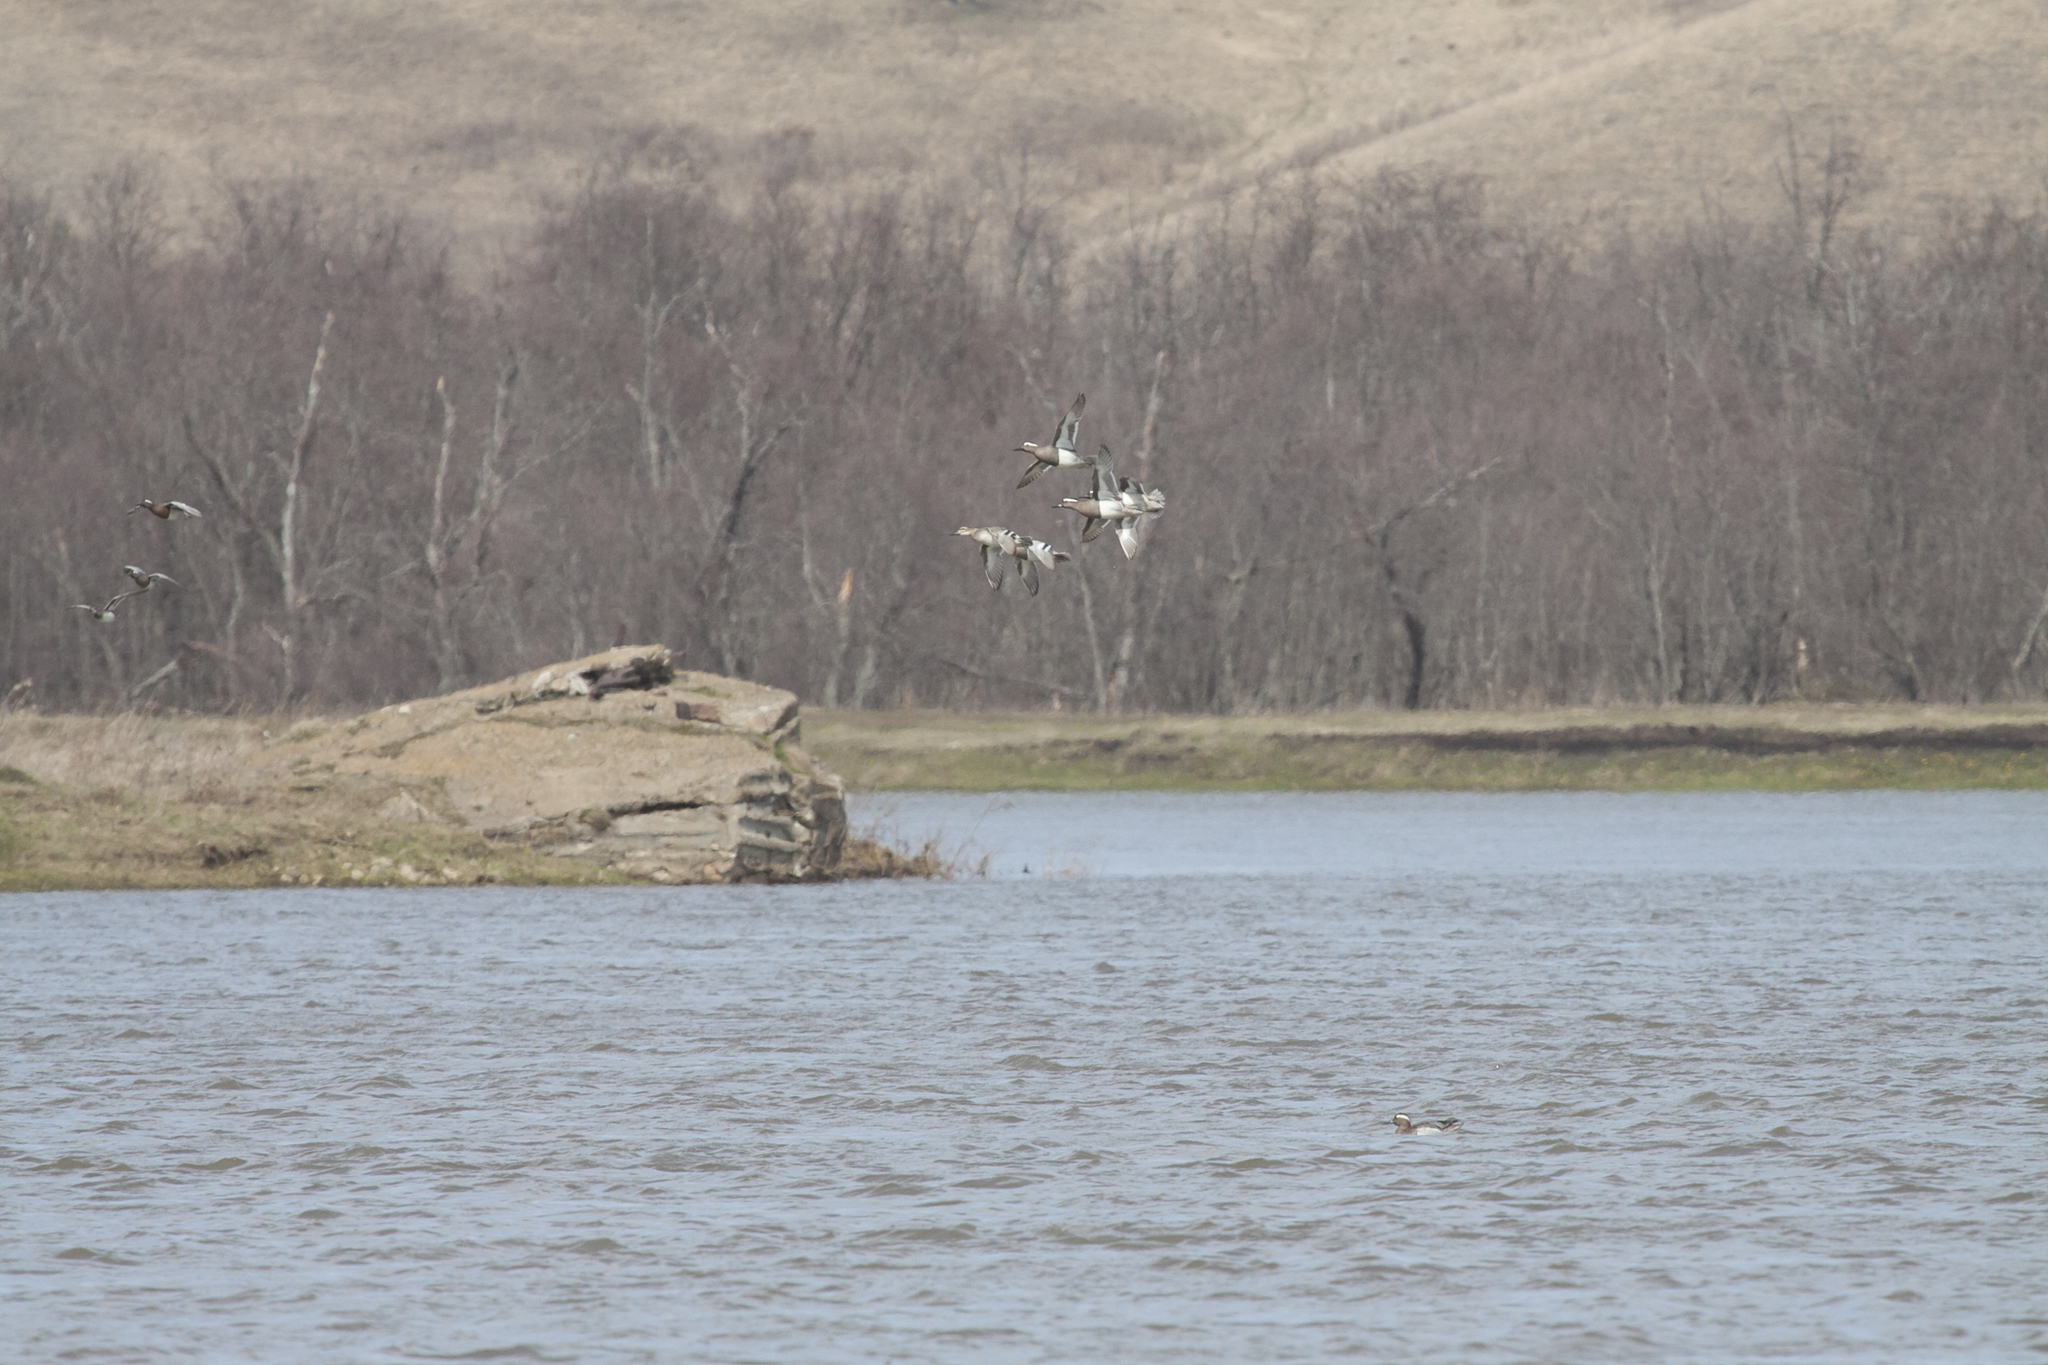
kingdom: Animalia
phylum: Chordata
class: Aves
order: Anseriformes
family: Anatidae
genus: Spatula
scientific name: Spatula querquedula
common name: Garganey
